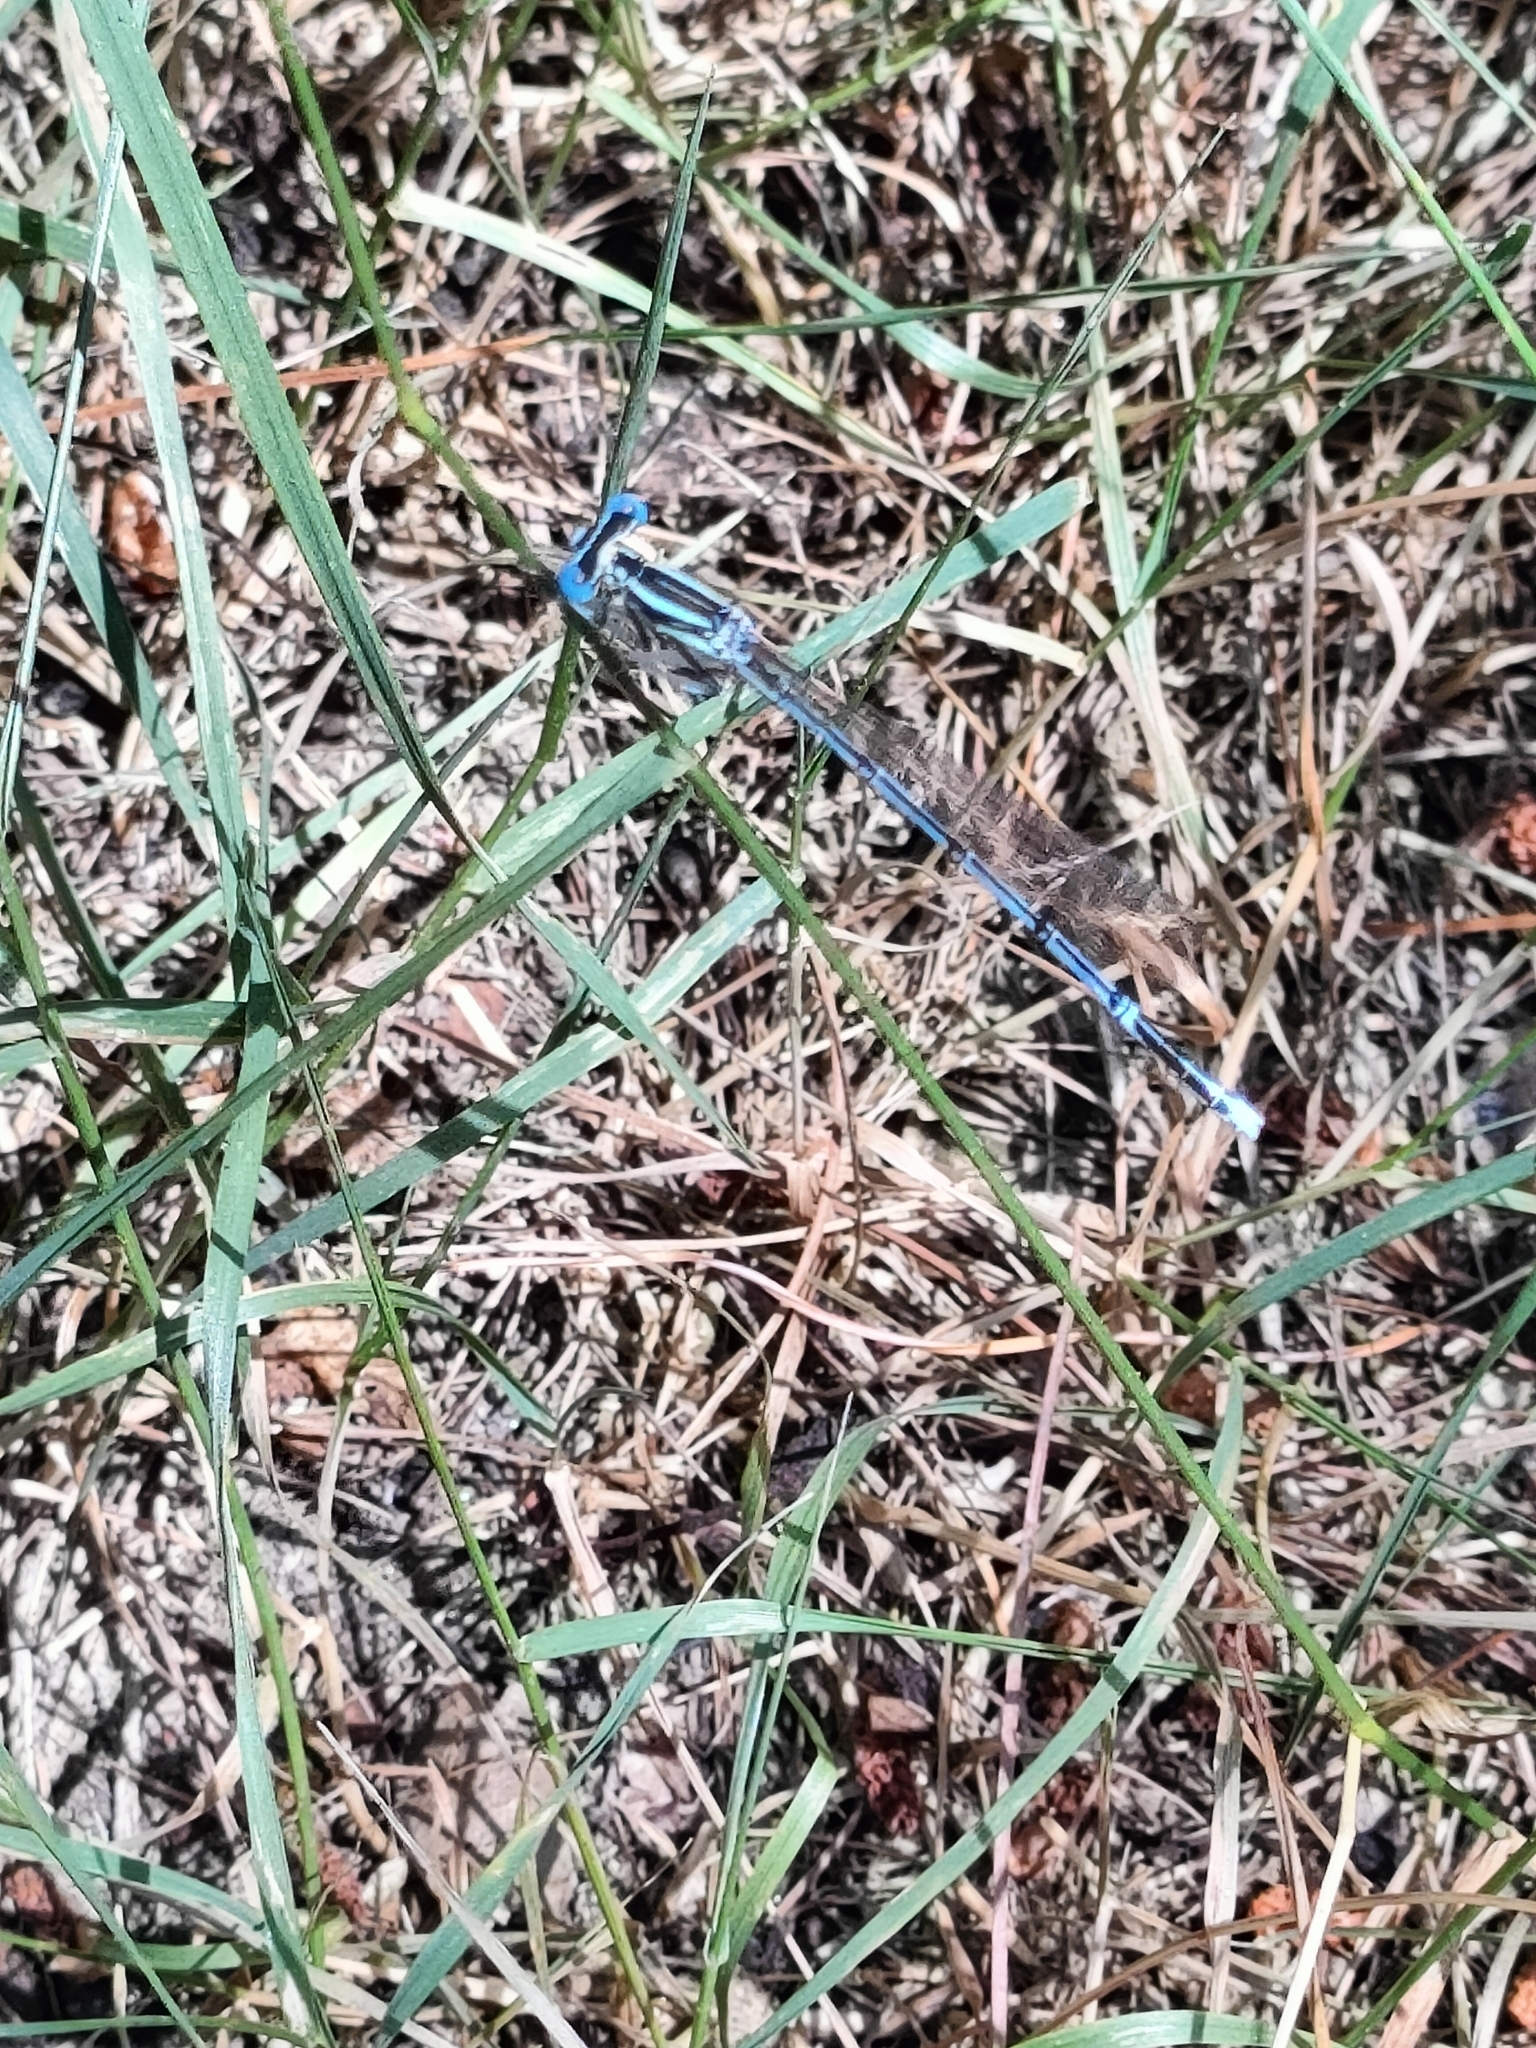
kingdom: Animalia
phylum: Arthropoda
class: Insecta
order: Odonata
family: Platycnemididae
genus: Platycnemis
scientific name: Platycnemis pennipes
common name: White-legged damselfly
